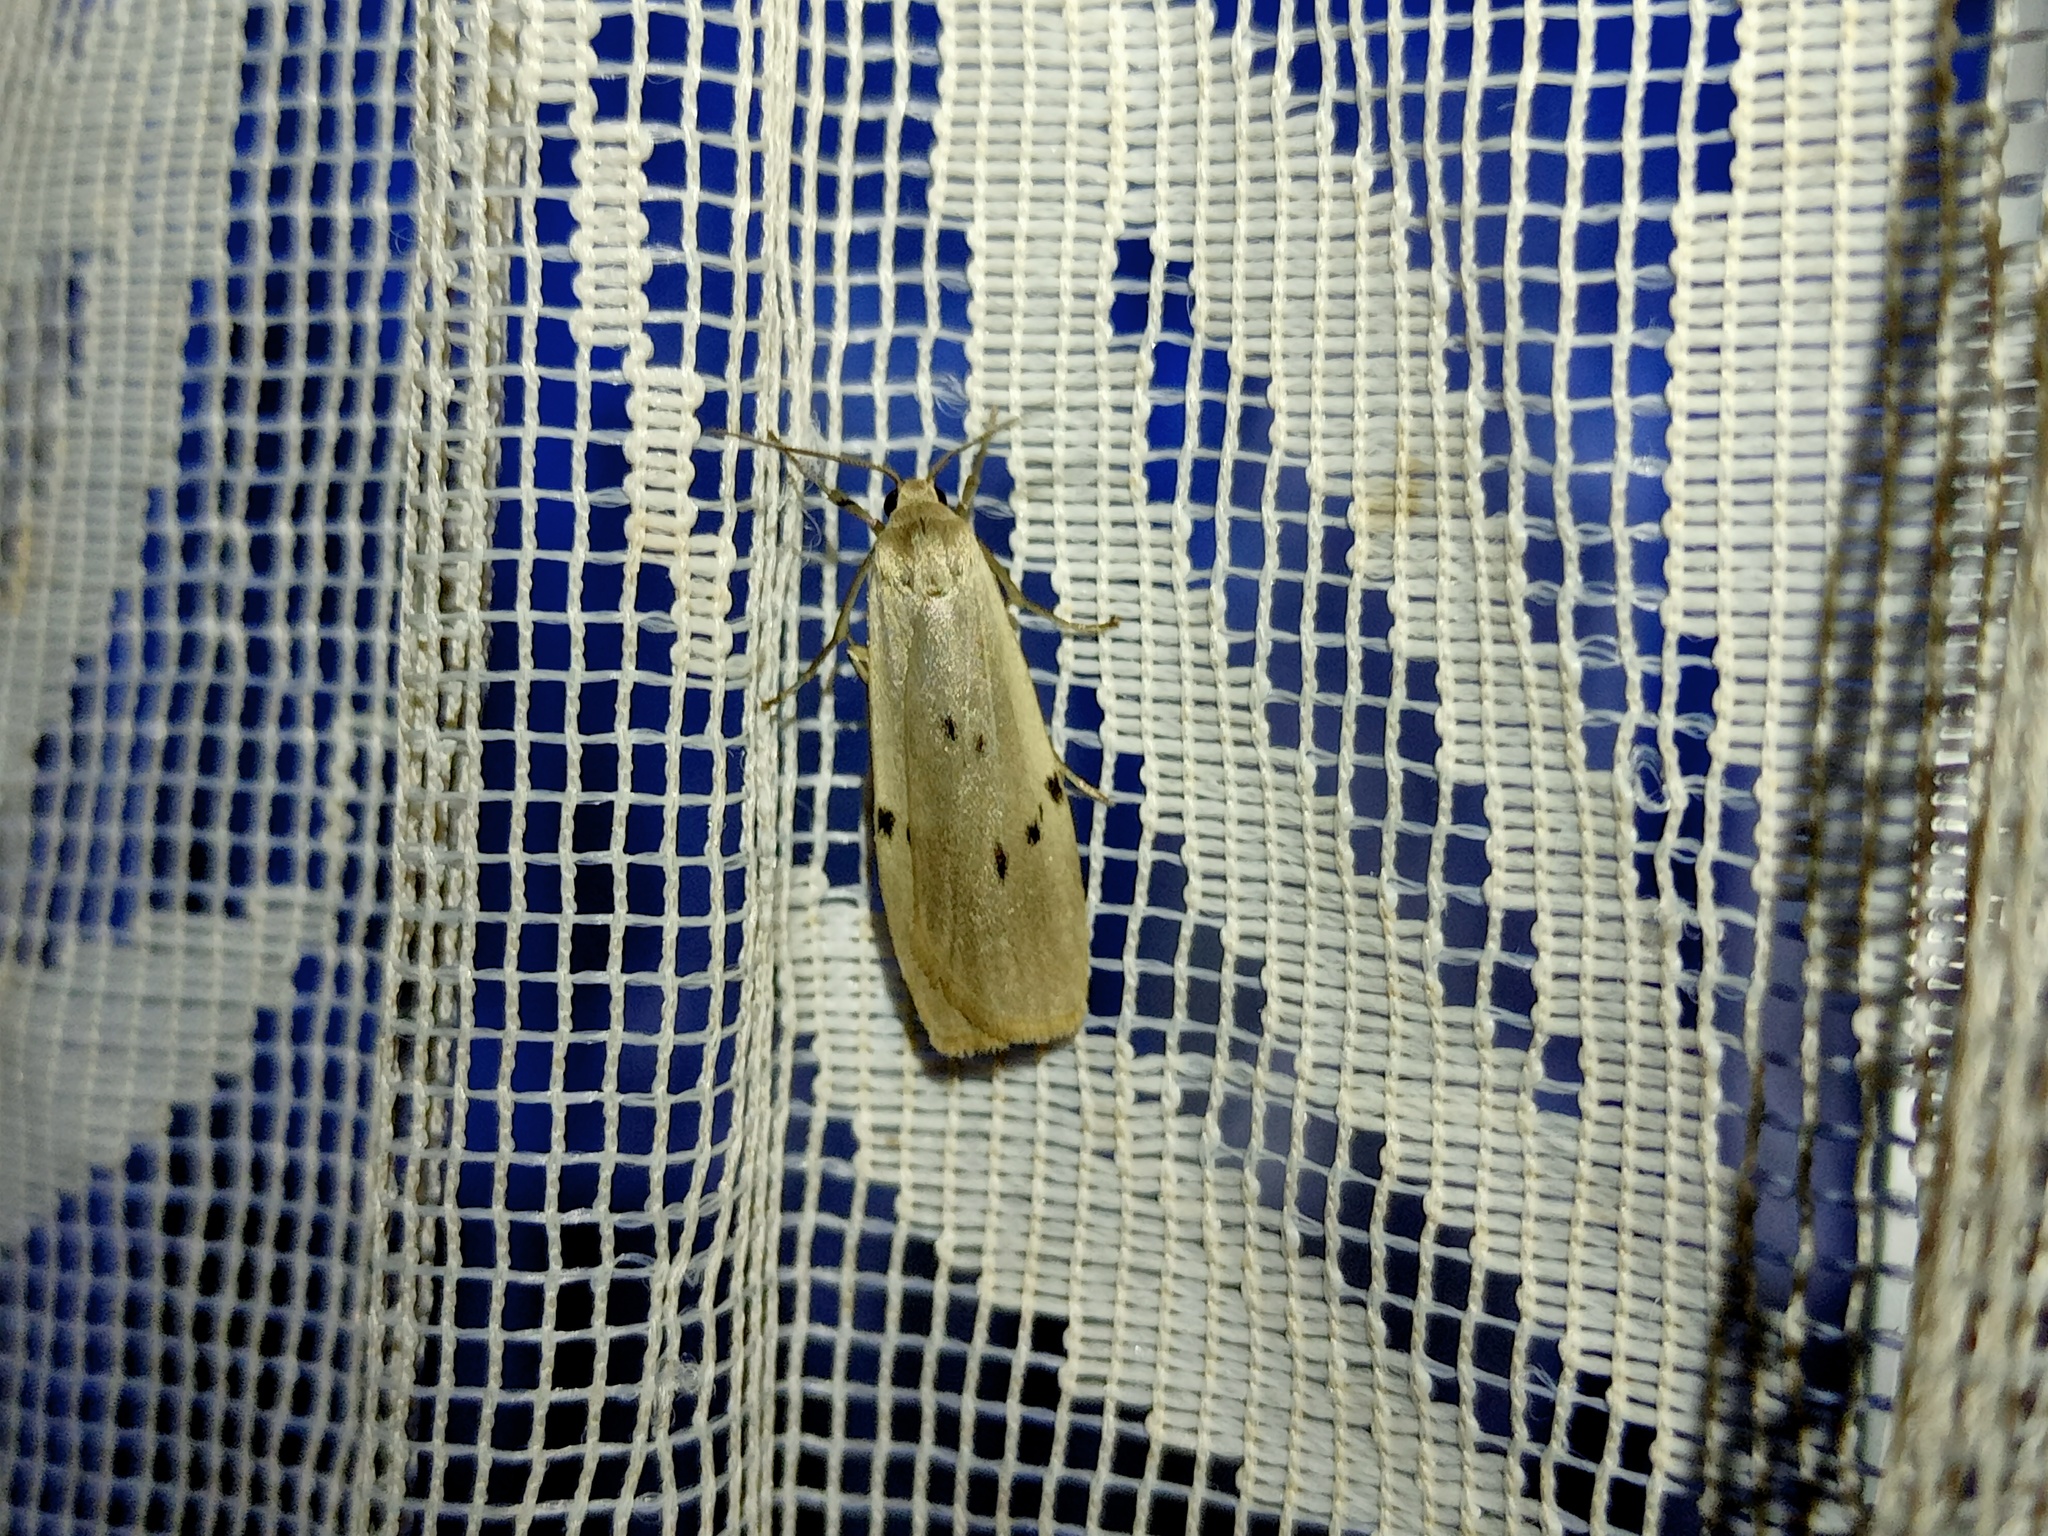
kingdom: Animalia
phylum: Arthropoda
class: Insecta
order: Lepidoptera
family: Erebidae
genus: Pelosia
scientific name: Pelosia muscerda
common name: Dotted footman
